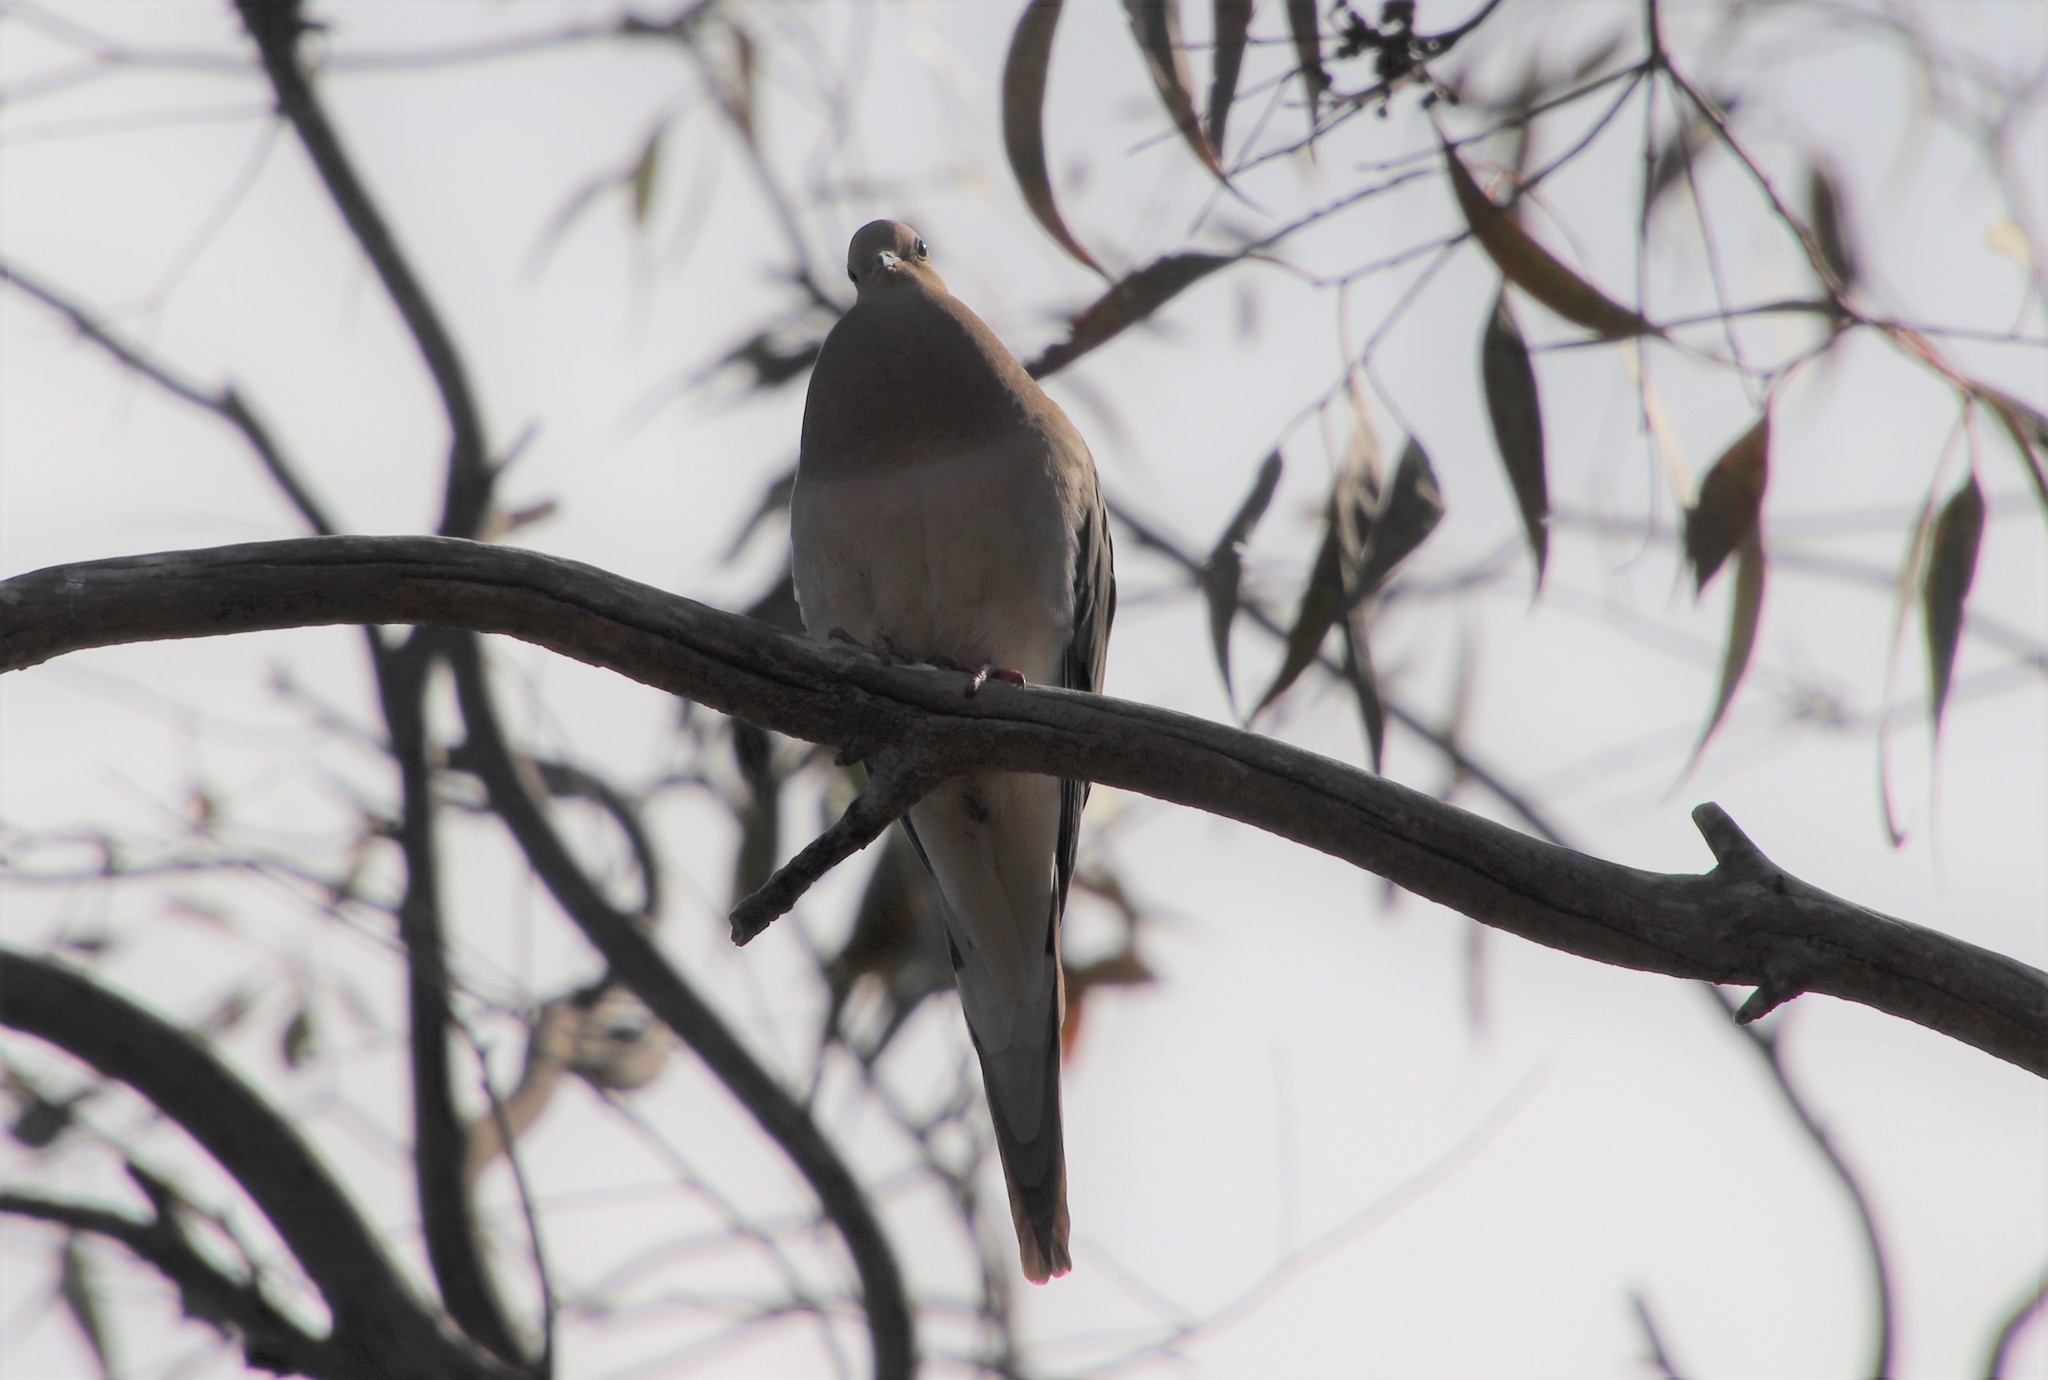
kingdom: Animalia
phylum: Chordata
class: Aves
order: Columbiformes
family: Columbidae
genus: Zenaida
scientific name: Zenaida macroura
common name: Mourning dove
